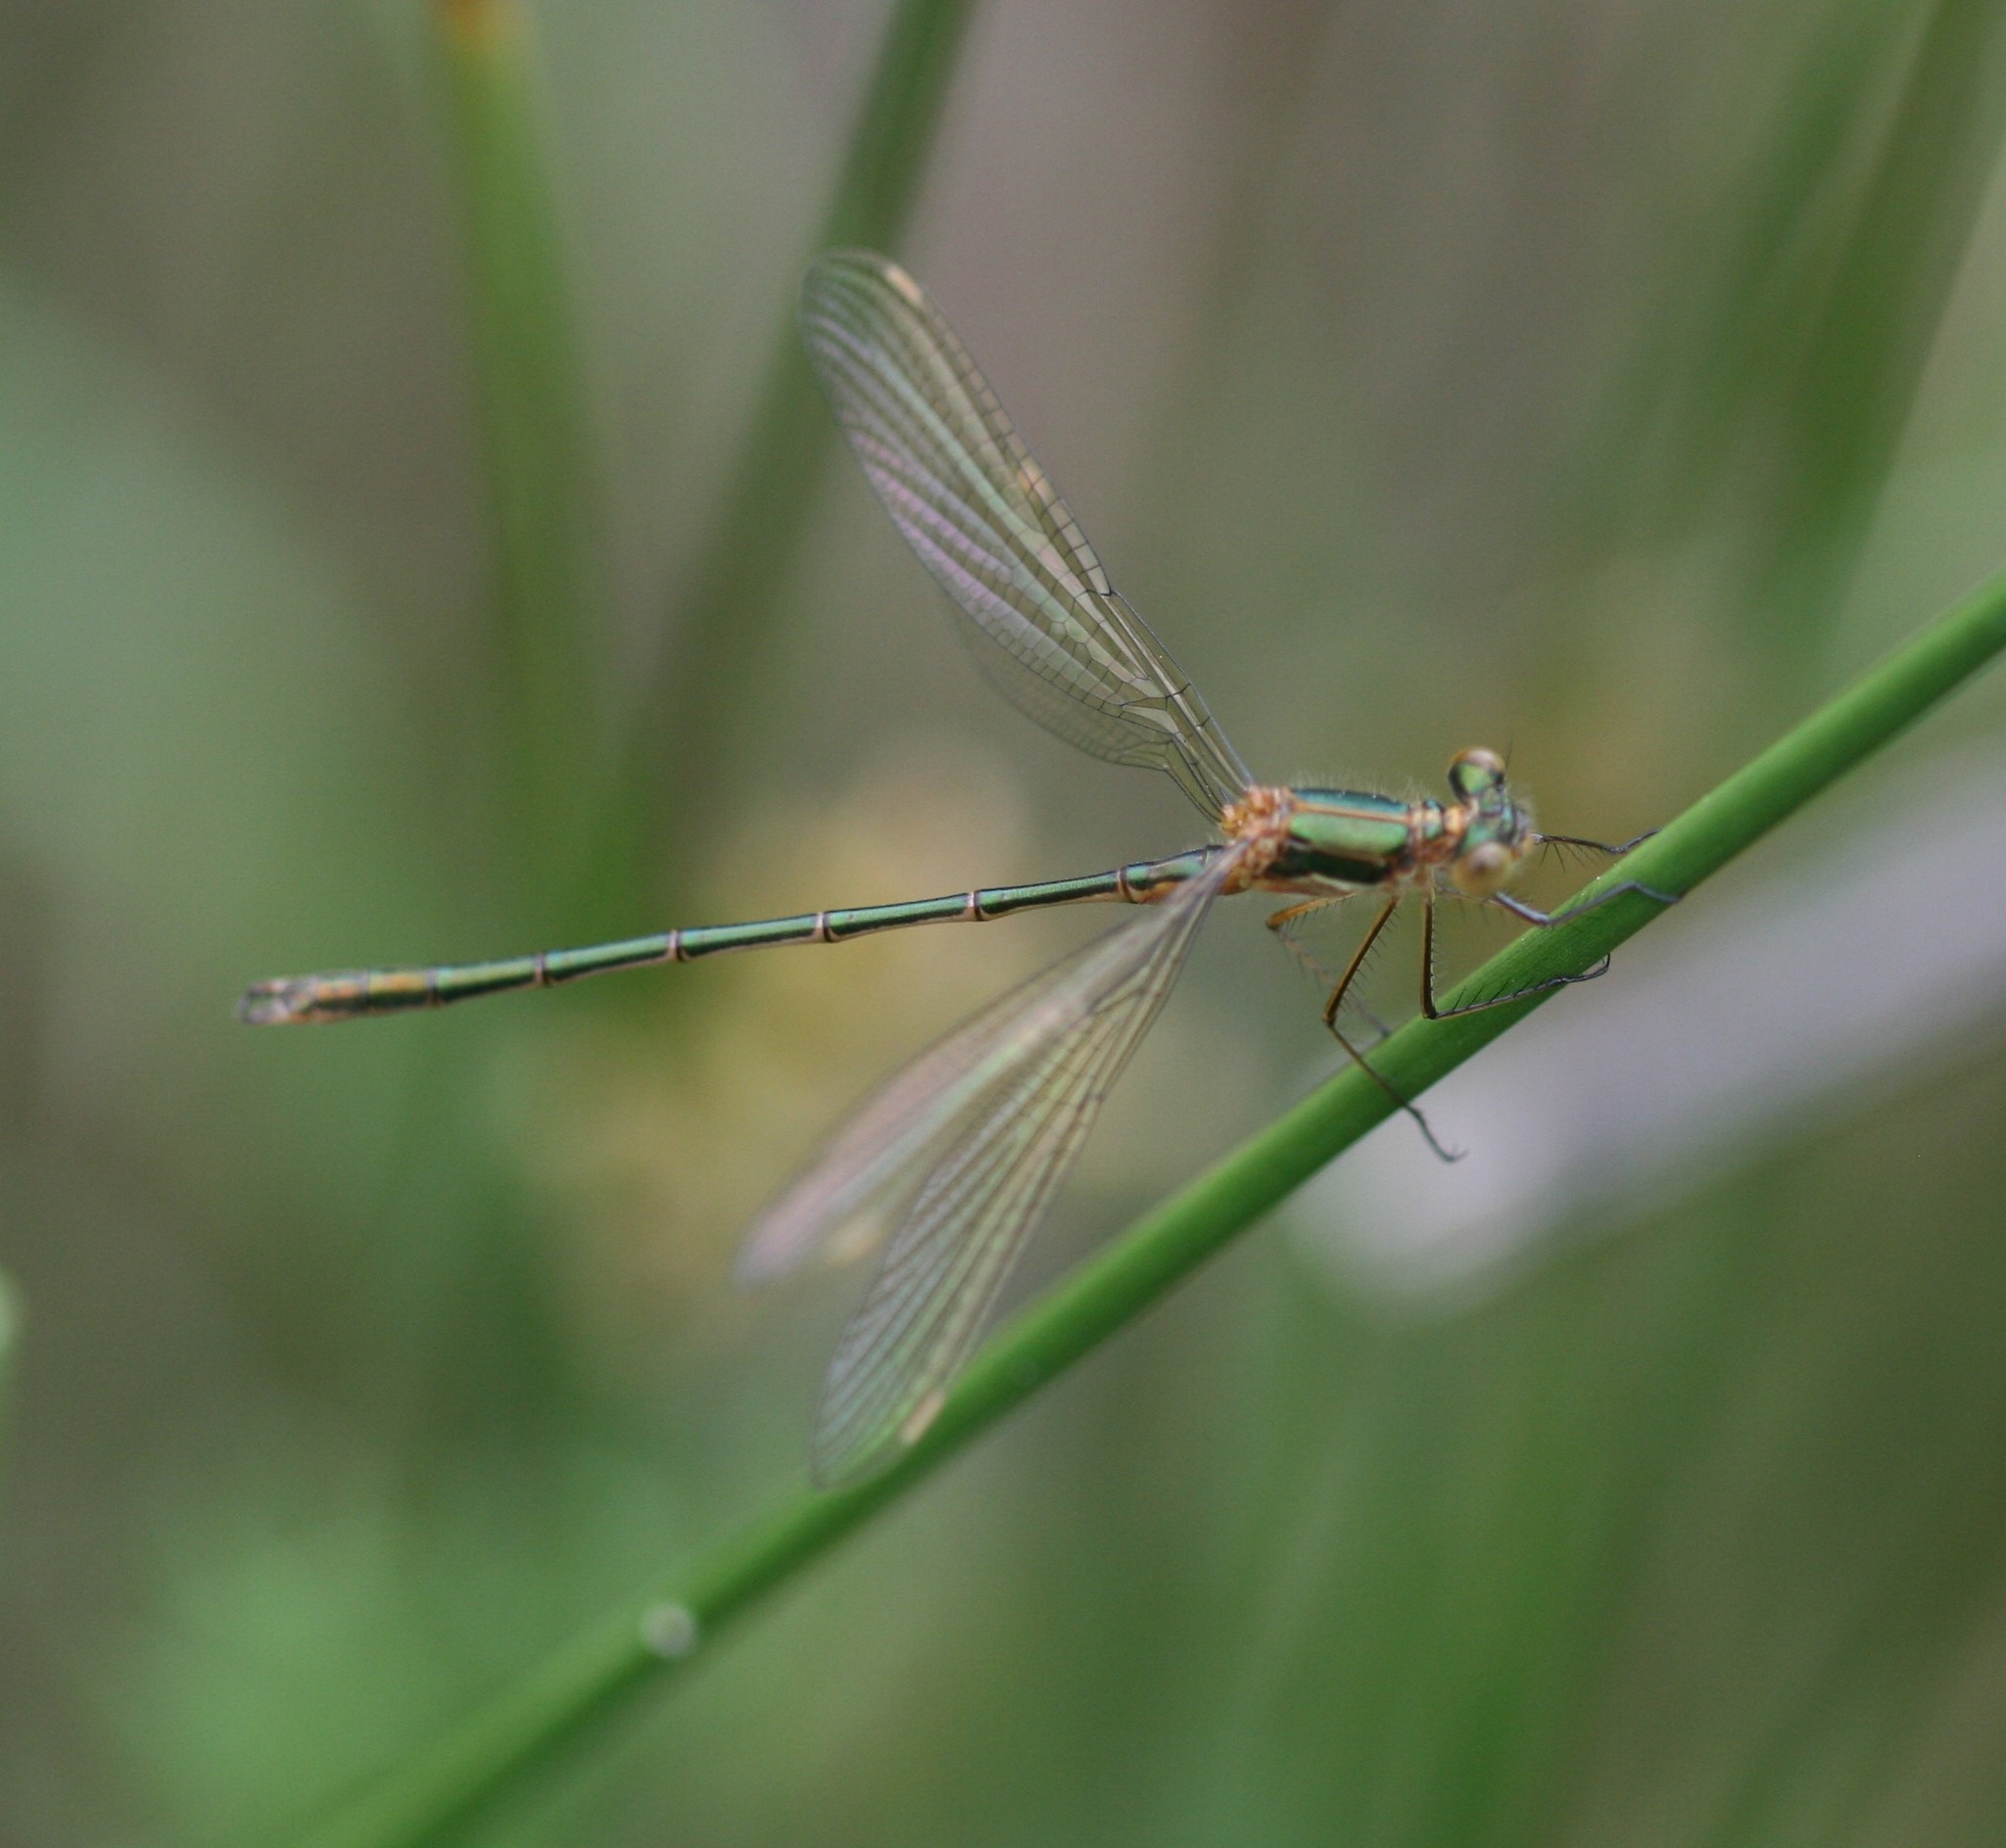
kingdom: Animalia
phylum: Arthropoda
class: Insecta
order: Odonata
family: Lestidae
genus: Lestes
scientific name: Lestes sponsa
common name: Common spreadwing
